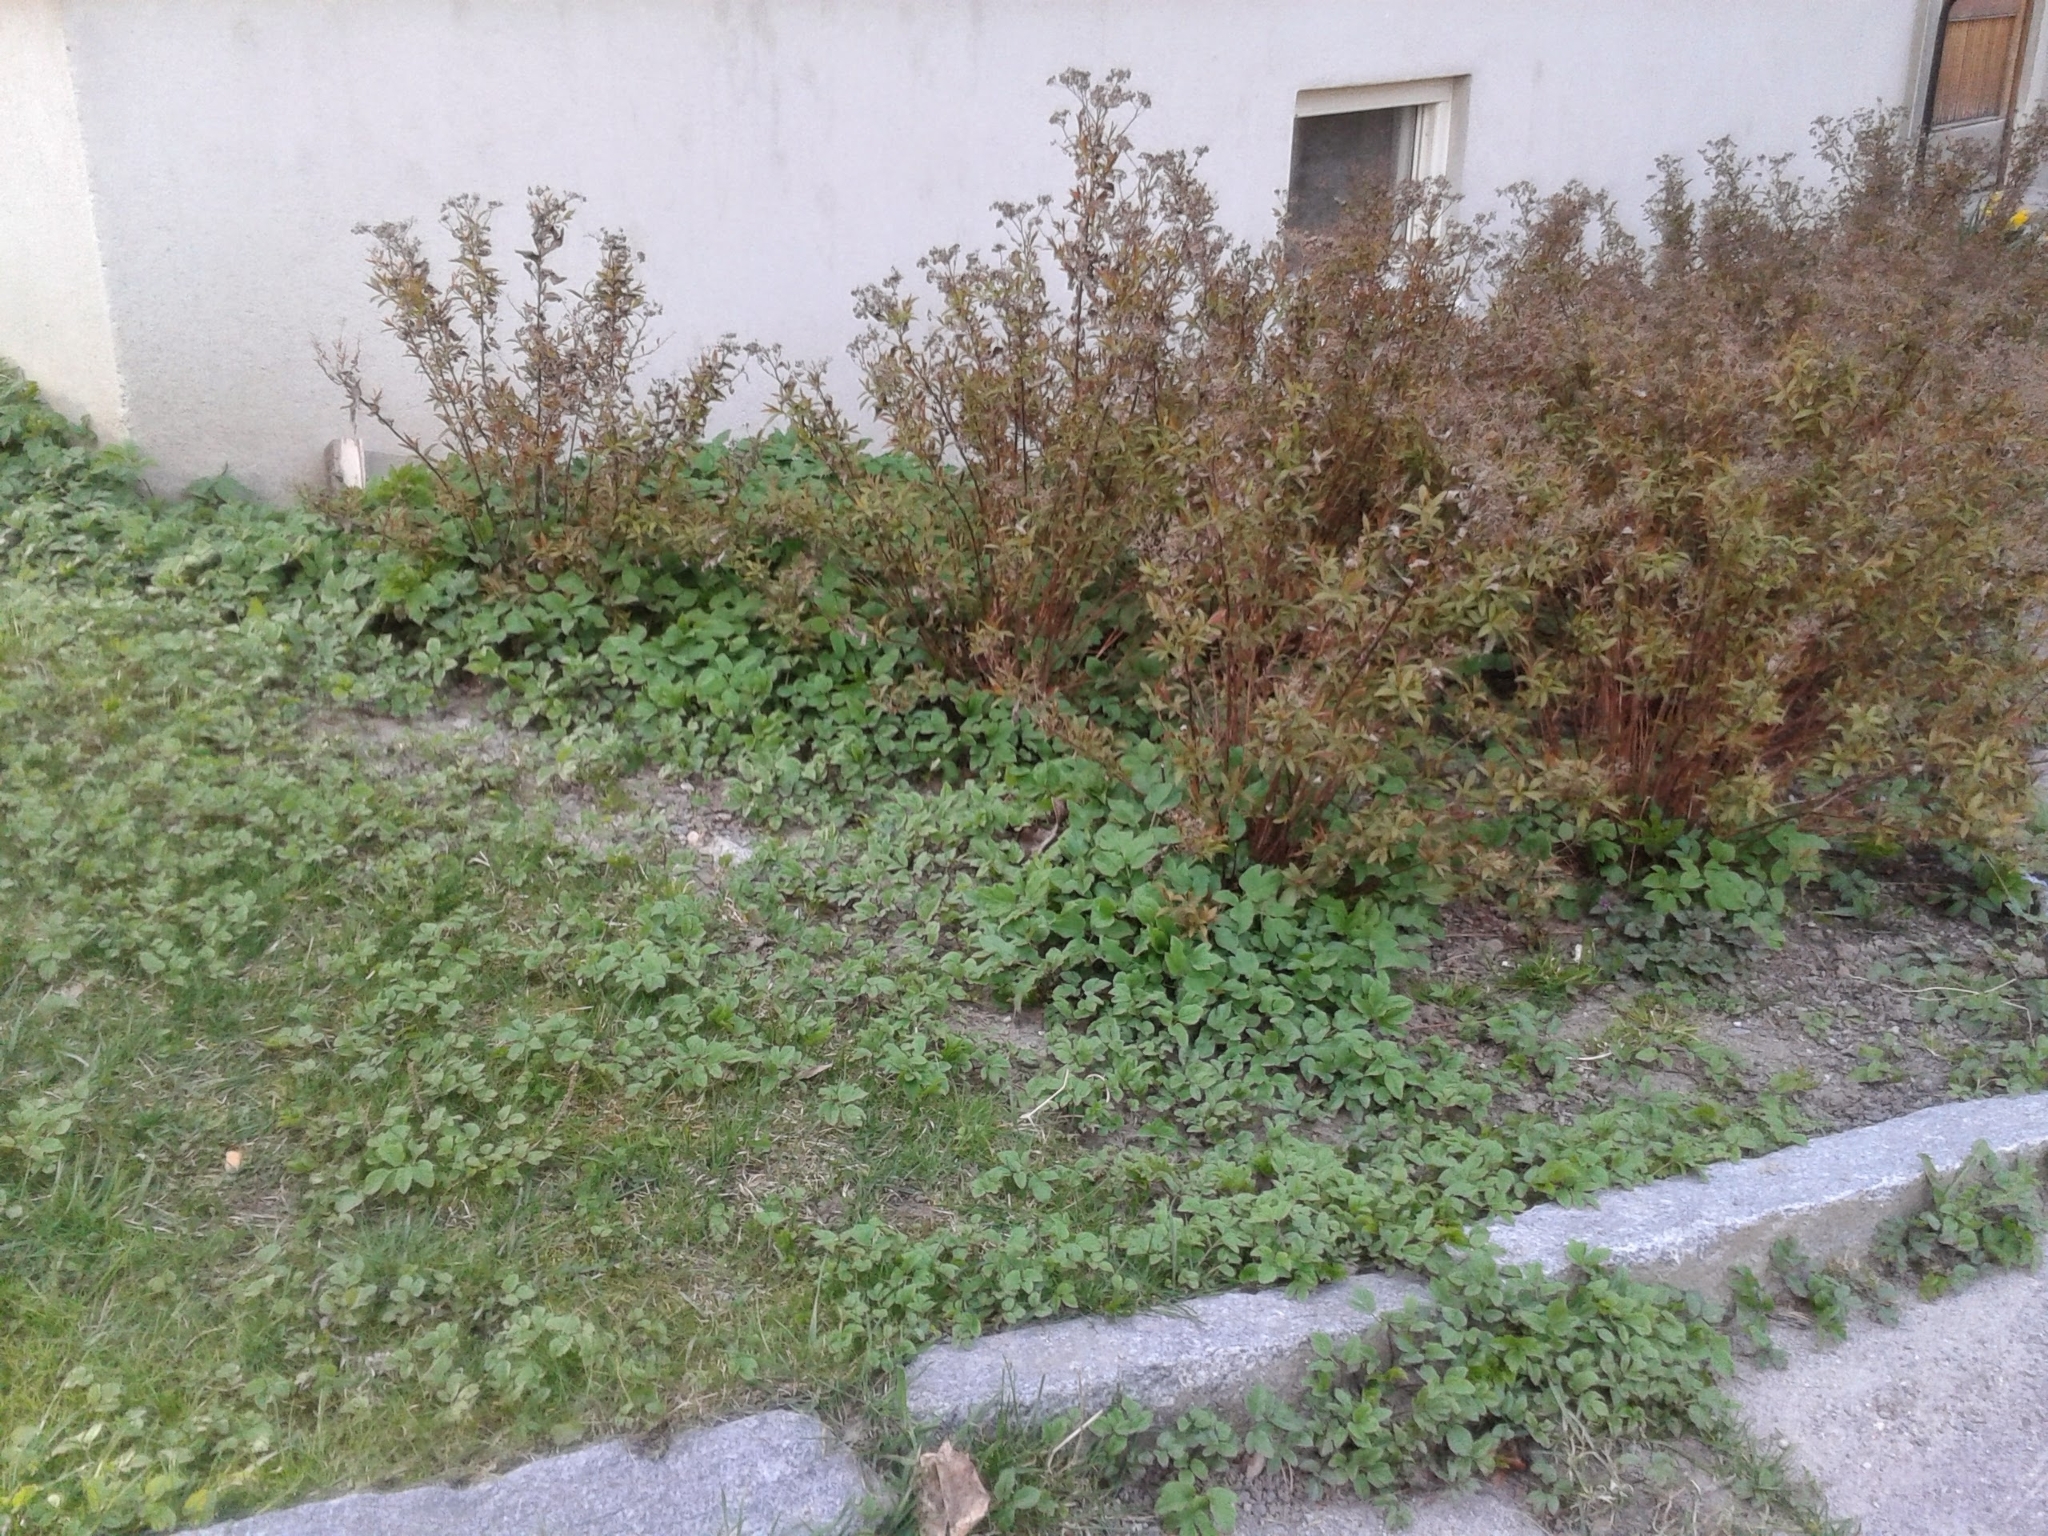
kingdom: Plantae
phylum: Tracheophyta
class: Magnoliopsida
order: Apiales
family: Apiaceae
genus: Aegopodium
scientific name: Aegopodium podagraria
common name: Ground-elder
